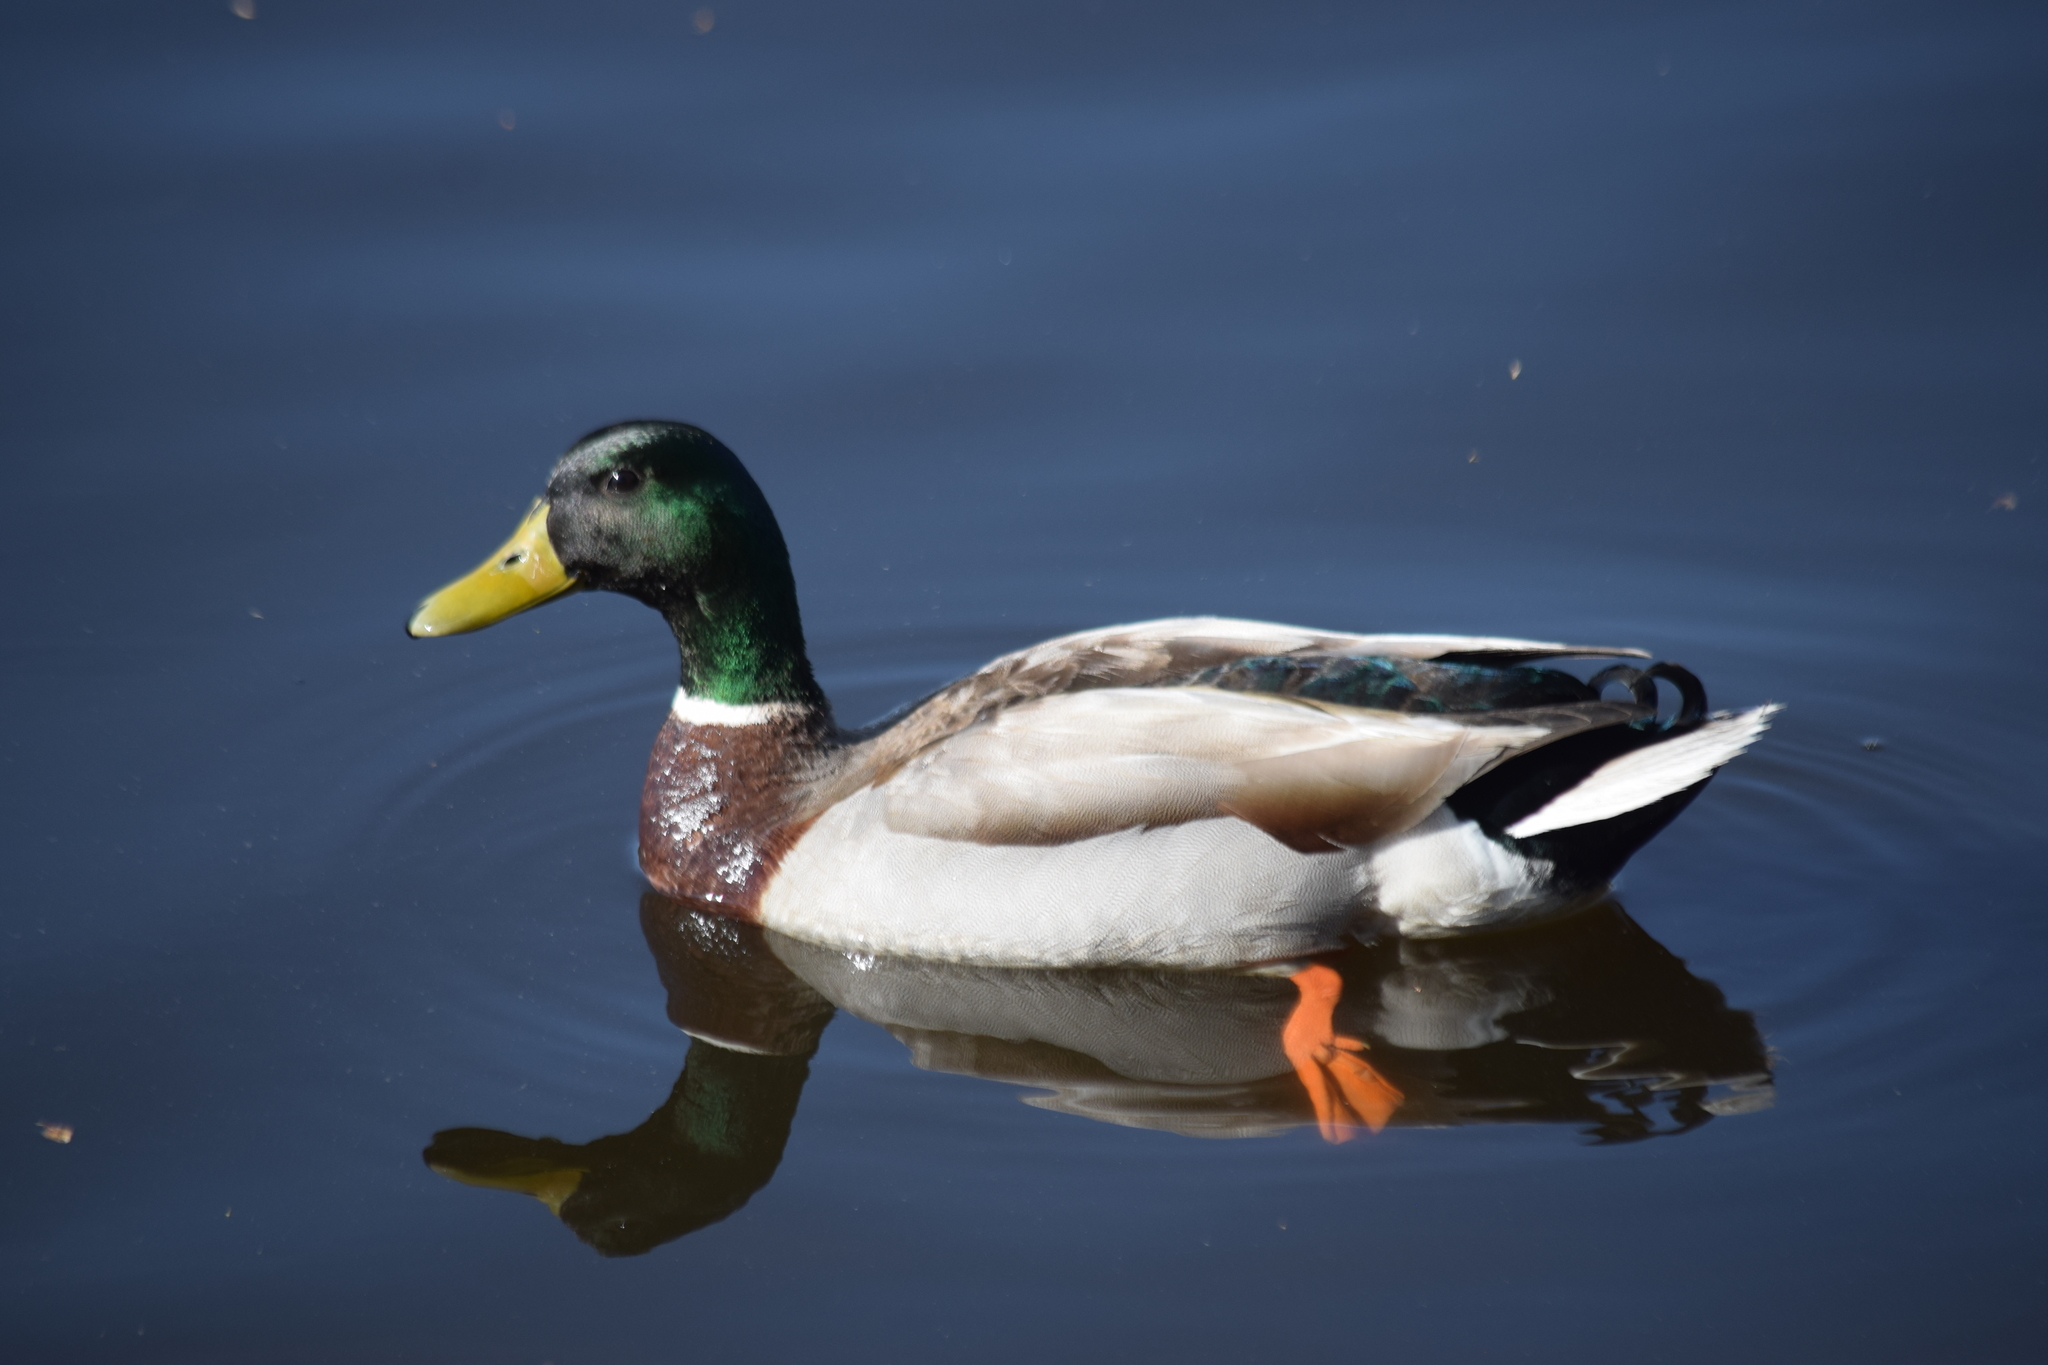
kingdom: Animalia
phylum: Chordata
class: Aves
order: Anseriformes
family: Anatidae
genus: Anas
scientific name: Anas platyrhynchos
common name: Mallard
